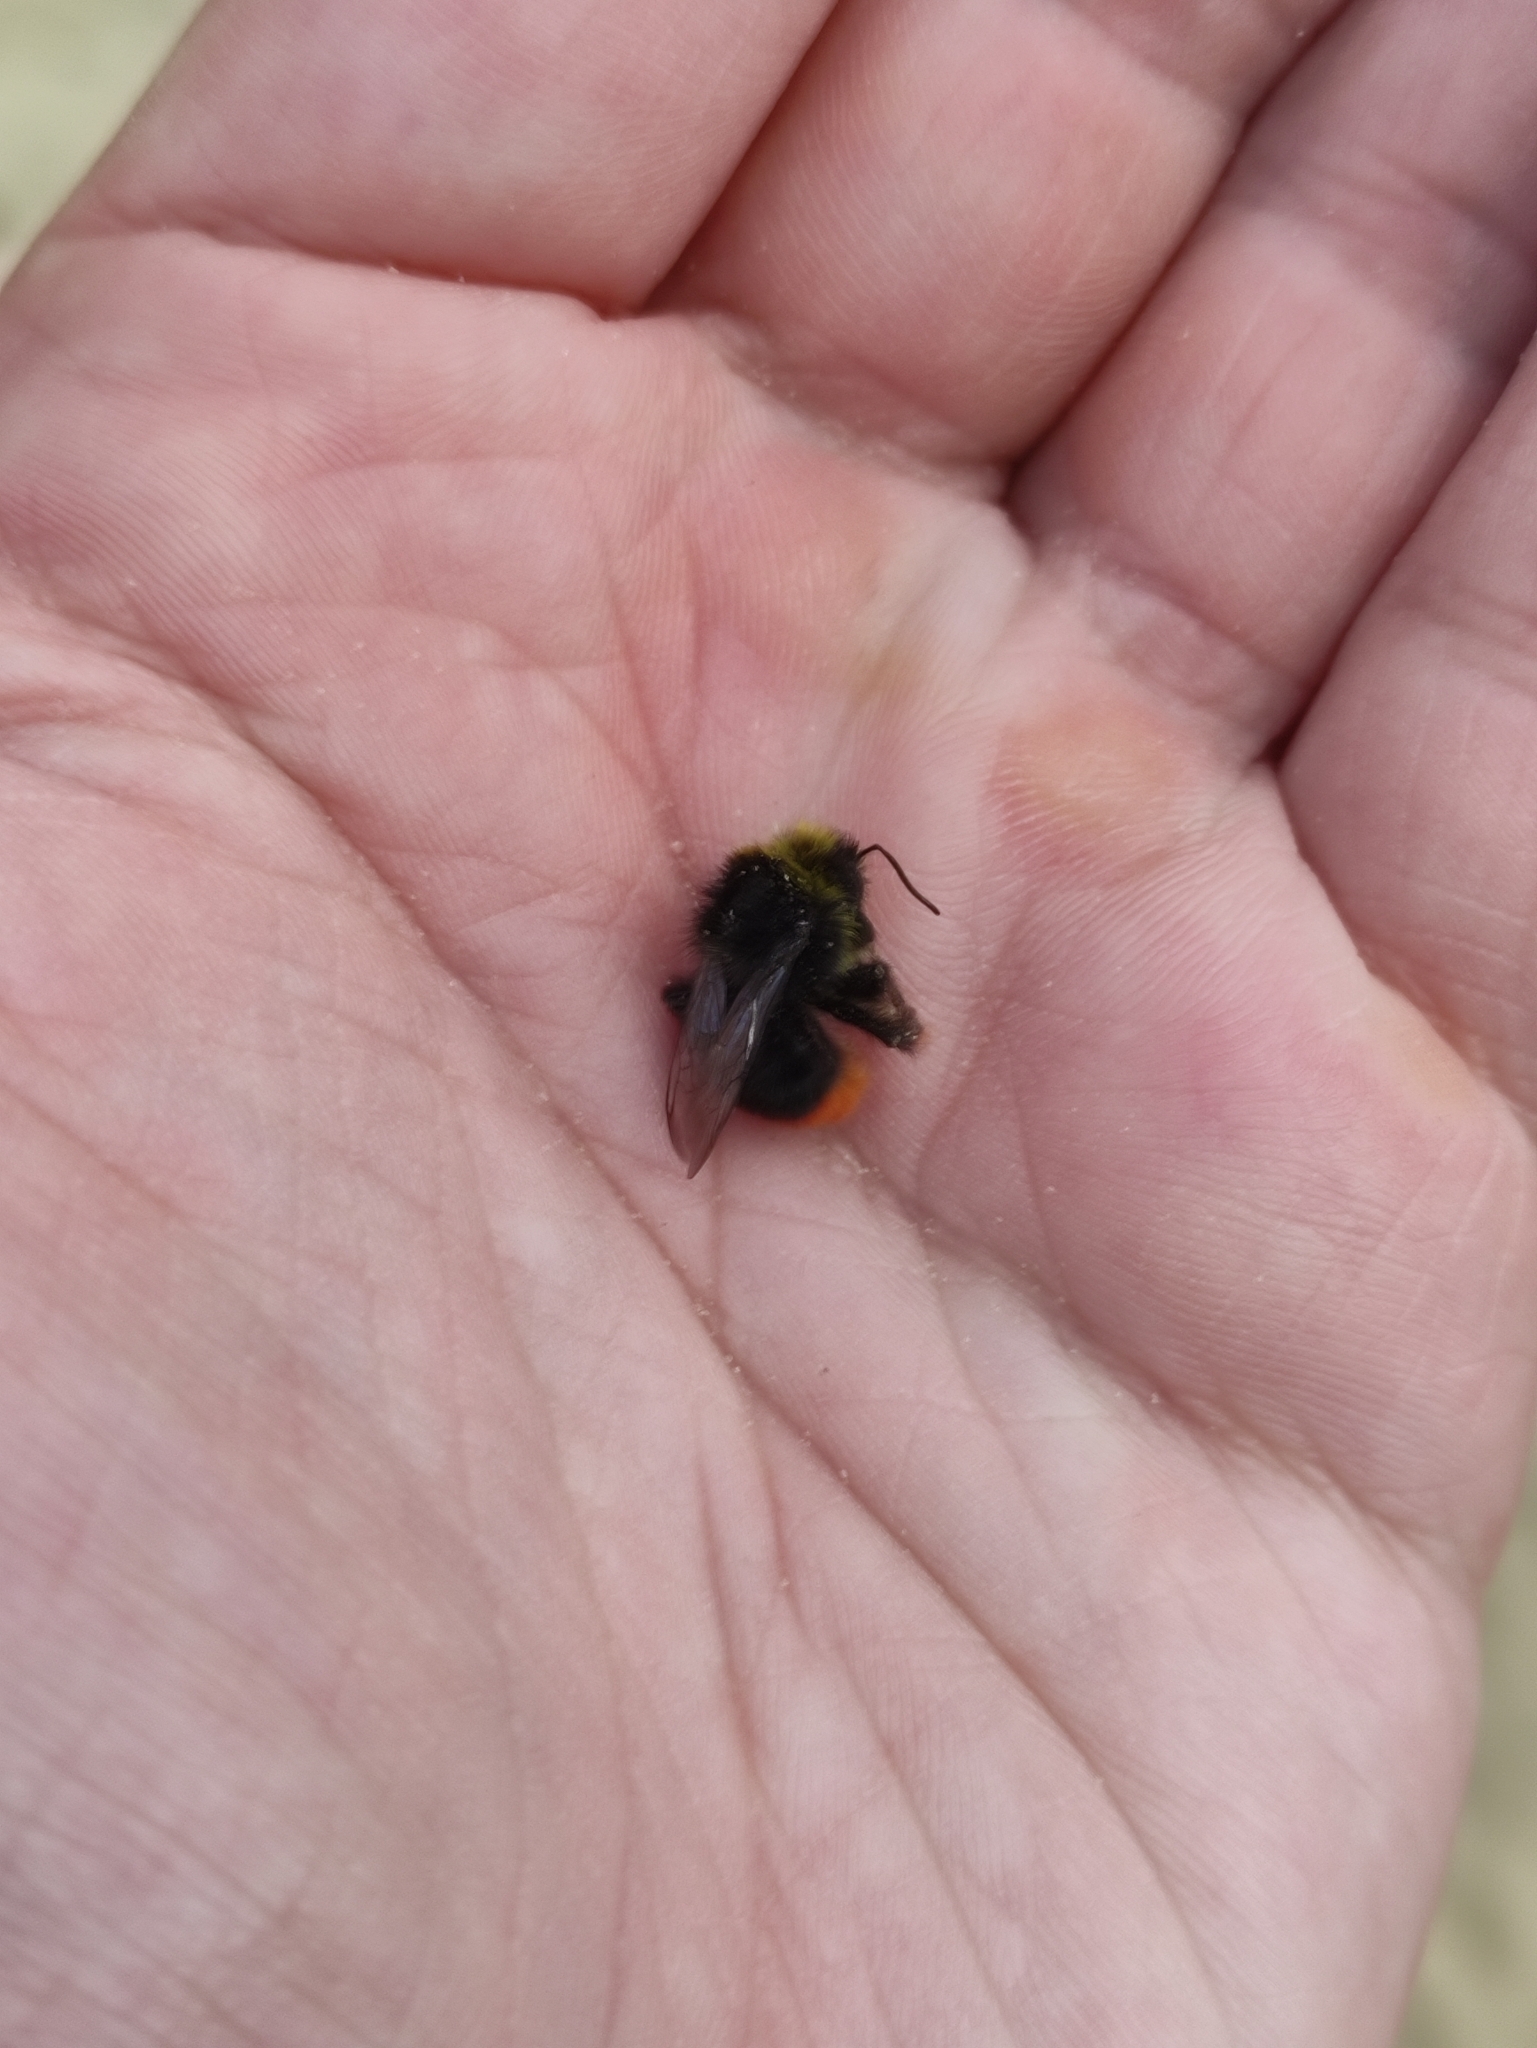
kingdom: Animalia
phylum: Arthropoda
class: Insecta
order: Hymenoptera
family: Apidae
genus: Bombus
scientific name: Bombus lapidarius
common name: Large red-tailed humble-bee
